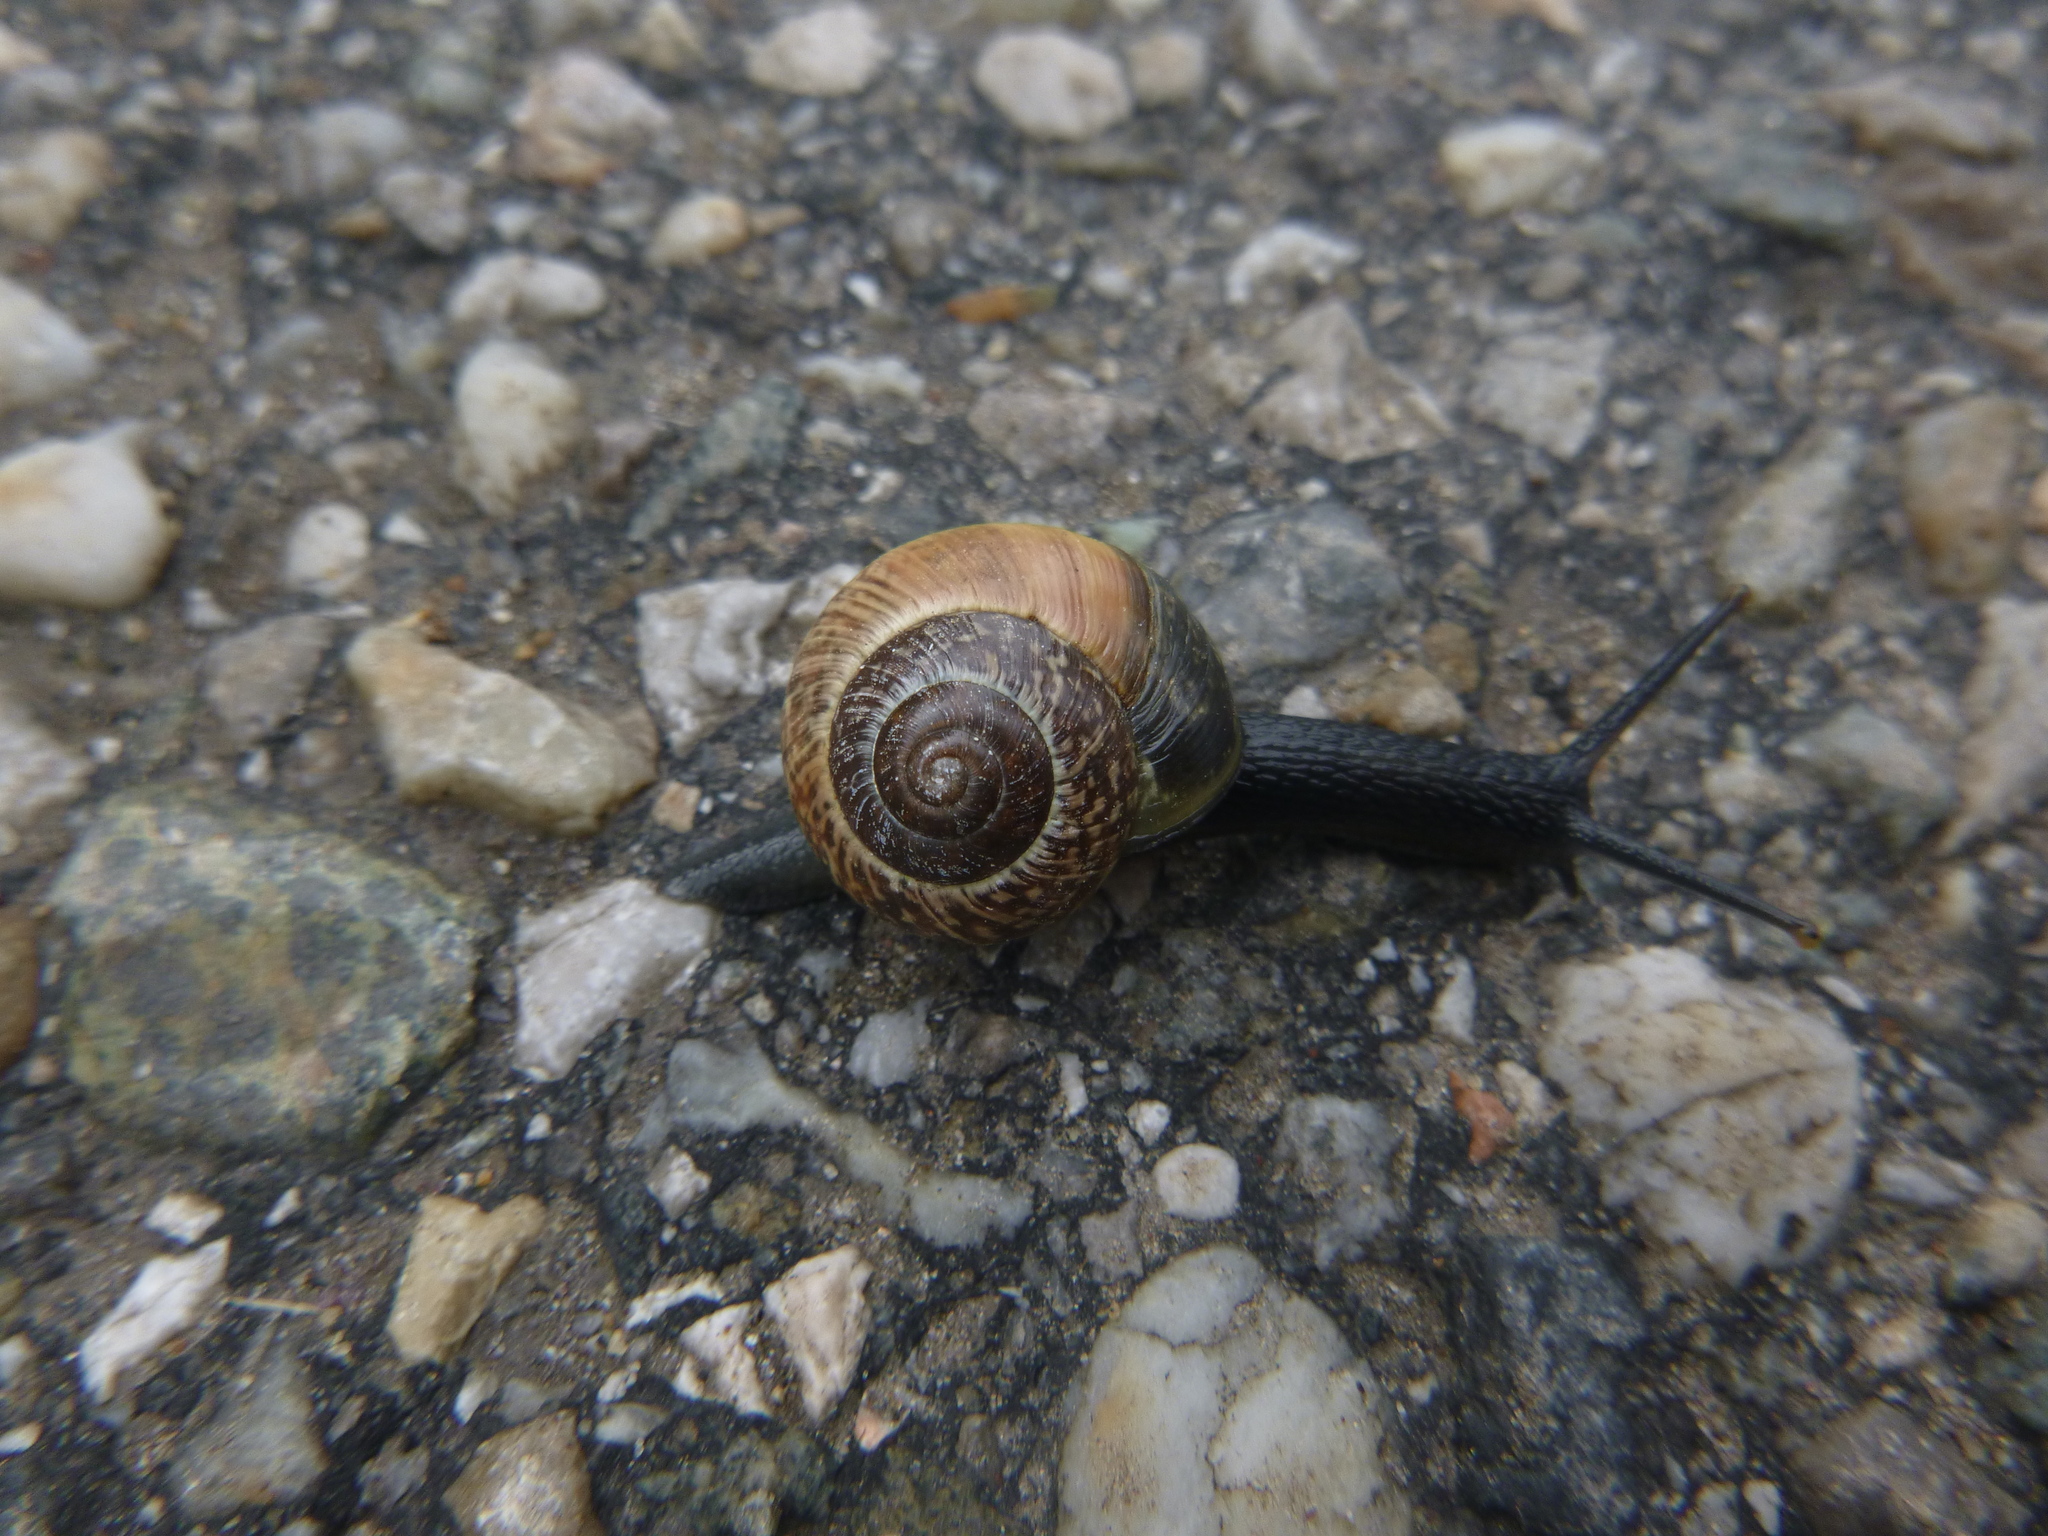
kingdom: Animalia
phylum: Mollusca
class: Gastropoda
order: Stylommatophora
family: Helicidae
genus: Arianta
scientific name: Arianta arbustorum
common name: Copse snail
